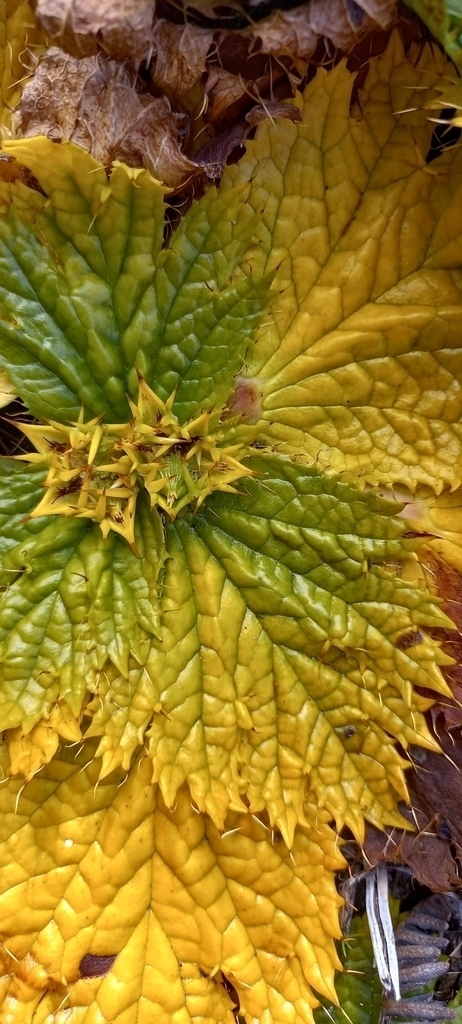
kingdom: Plantae
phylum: Tracheophyta
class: Magnoliopsida
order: Apiales
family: Apiaceae
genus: Arctopus
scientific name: Arctopus echinatus
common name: Platdoring
